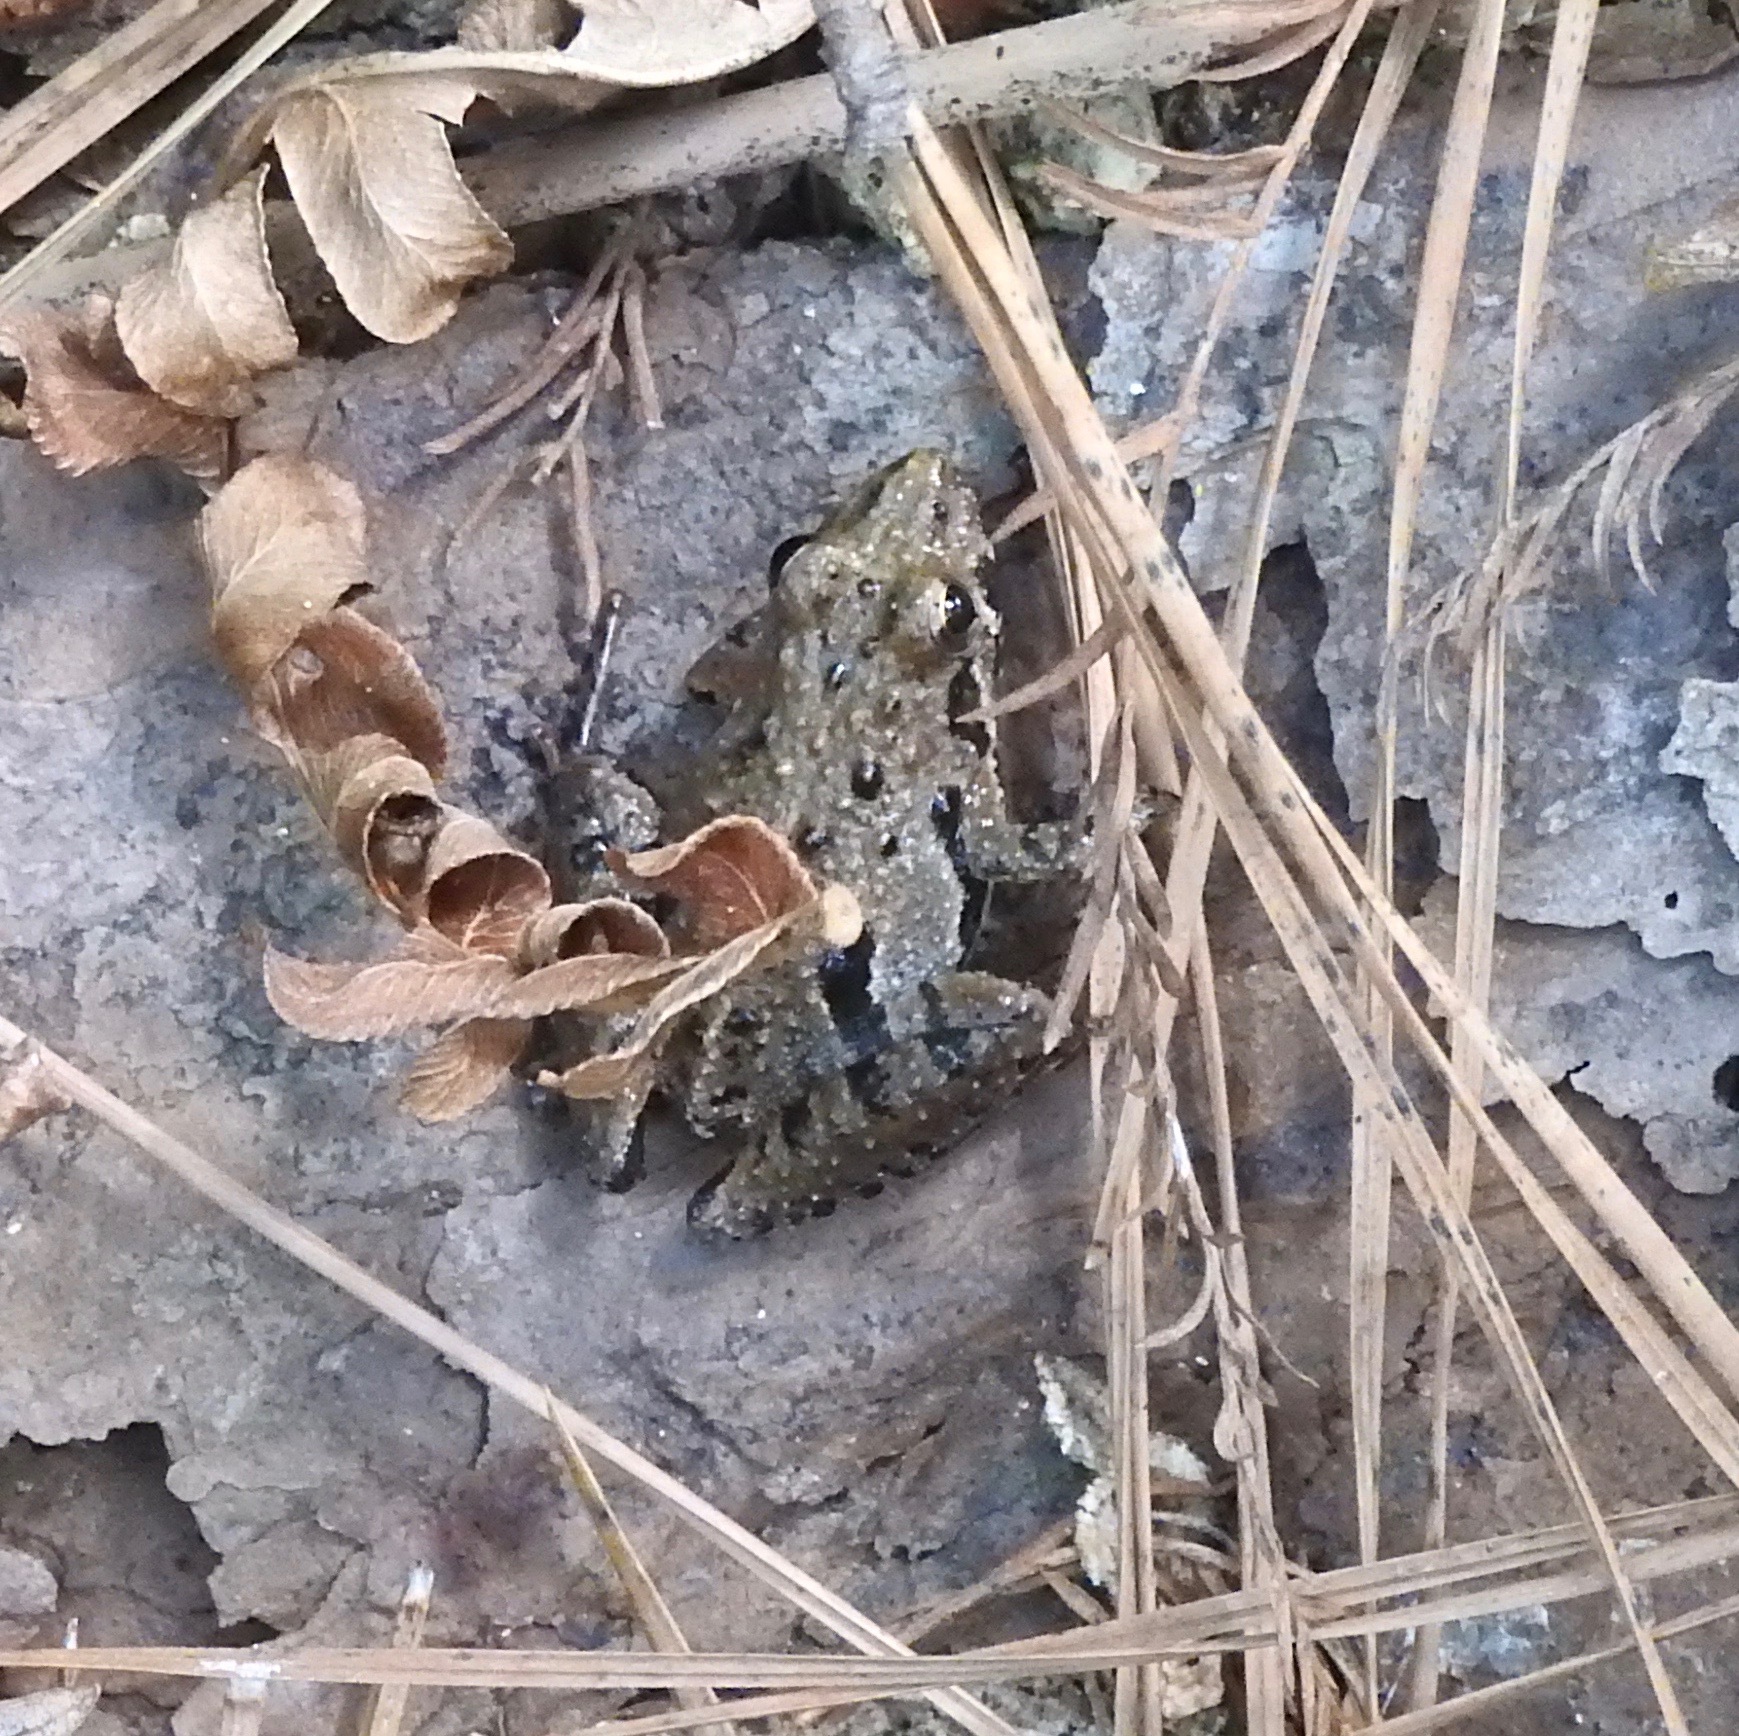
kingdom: Animalia
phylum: Chordata
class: Amphibia
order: Anura
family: Hylidae
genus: Acris
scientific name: Acris gryllus
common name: Southern cricket frog
